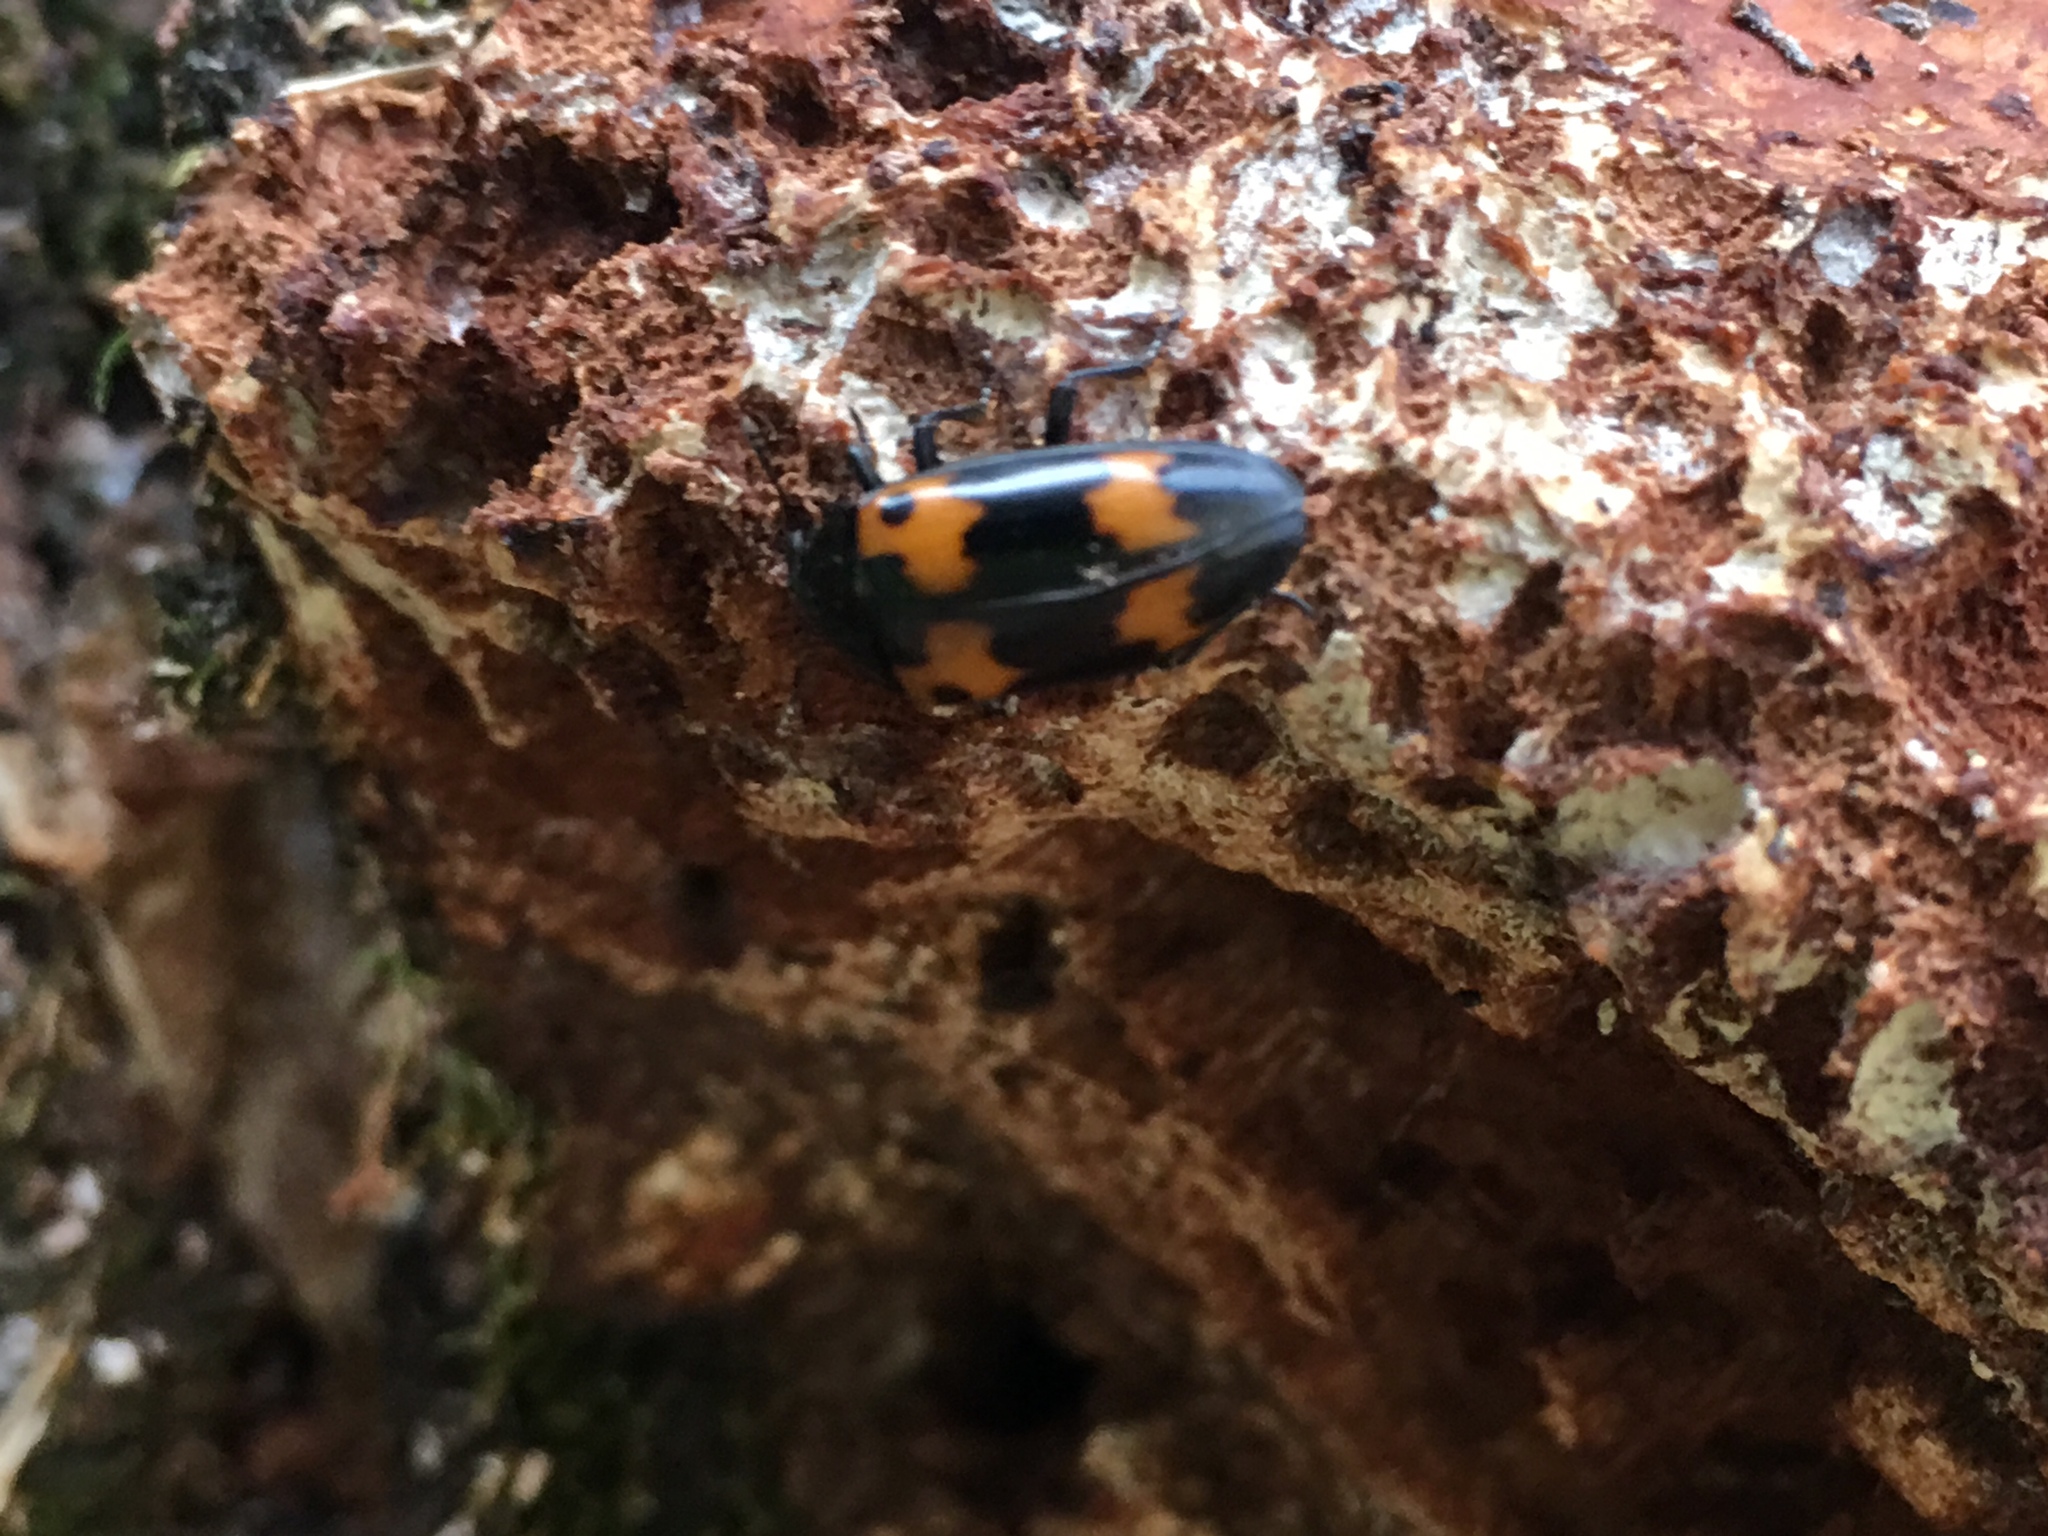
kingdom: Animalia
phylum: Arthropoda
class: Insecta
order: Coleoptera
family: Erotylidae
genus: Megalodacne
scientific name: Megalodacne fasciata
